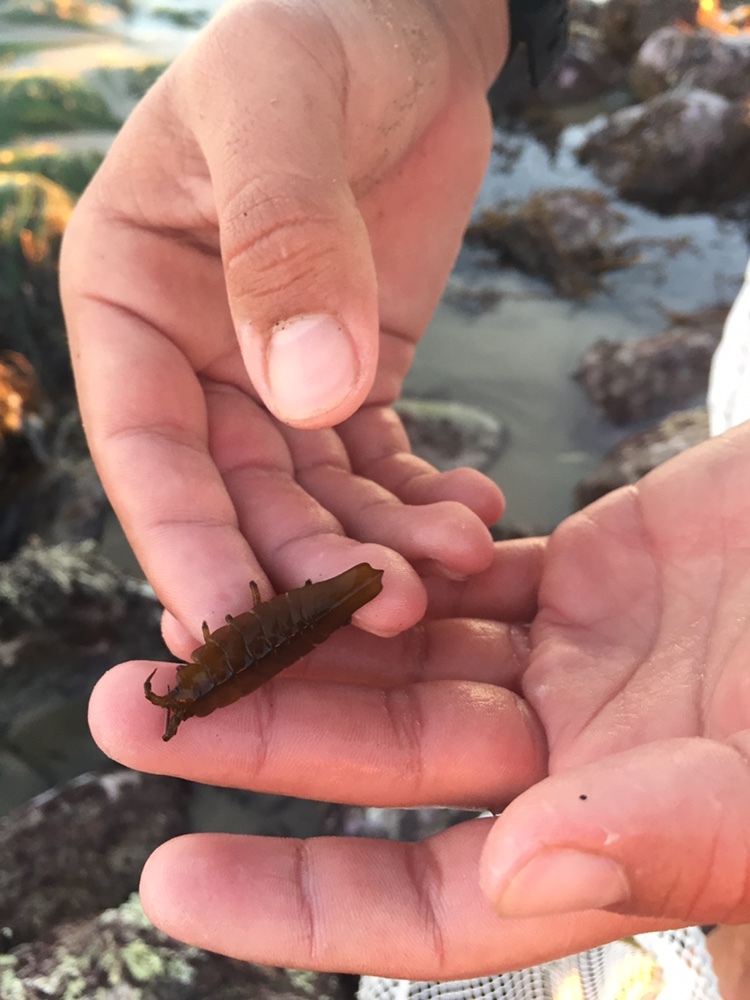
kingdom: Animalia
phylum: Arthropoda
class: Malacostraca
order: Isopoda
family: Idoteidae
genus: Pentidotea
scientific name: Pentidotea stenops
